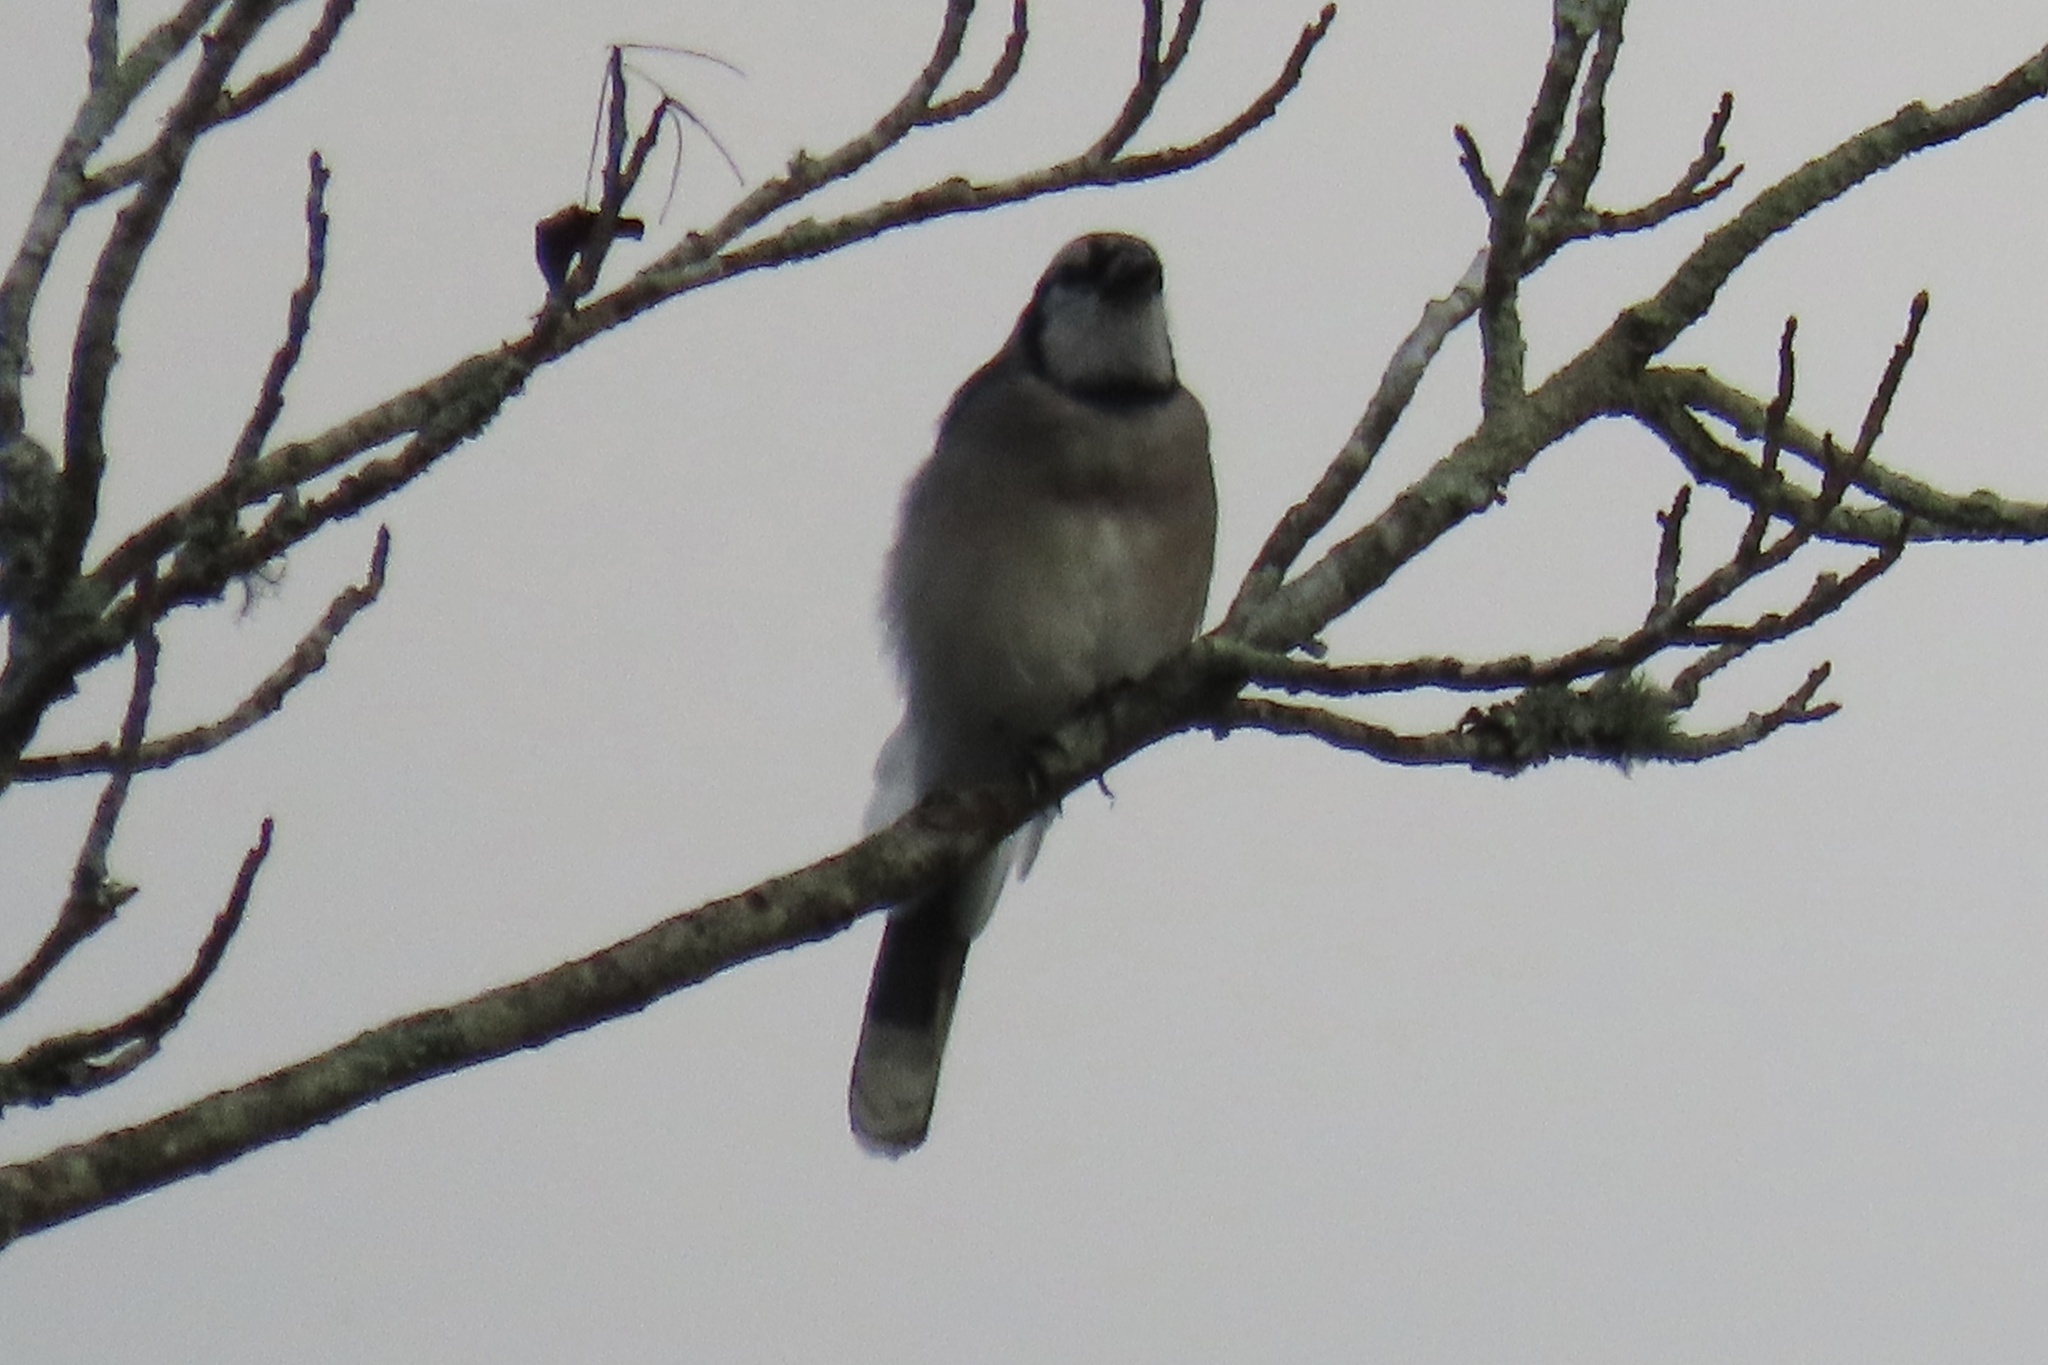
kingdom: Animalia
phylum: Chordata
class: Aves
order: Passeriformes
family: Corvidae
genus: Cyanocitta
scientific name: Cyanocitta cristata
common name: Blue jay
